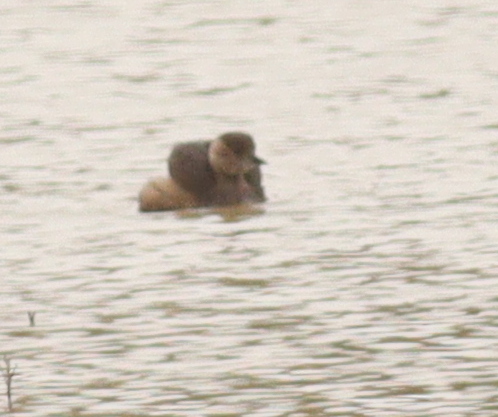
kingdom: Animalia
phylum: Chordata
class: Aves
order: Podicipediformes
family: Podicipedidae
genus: Tachybaptus
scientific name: Tachybaptus ruficollis
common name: Little grebe
